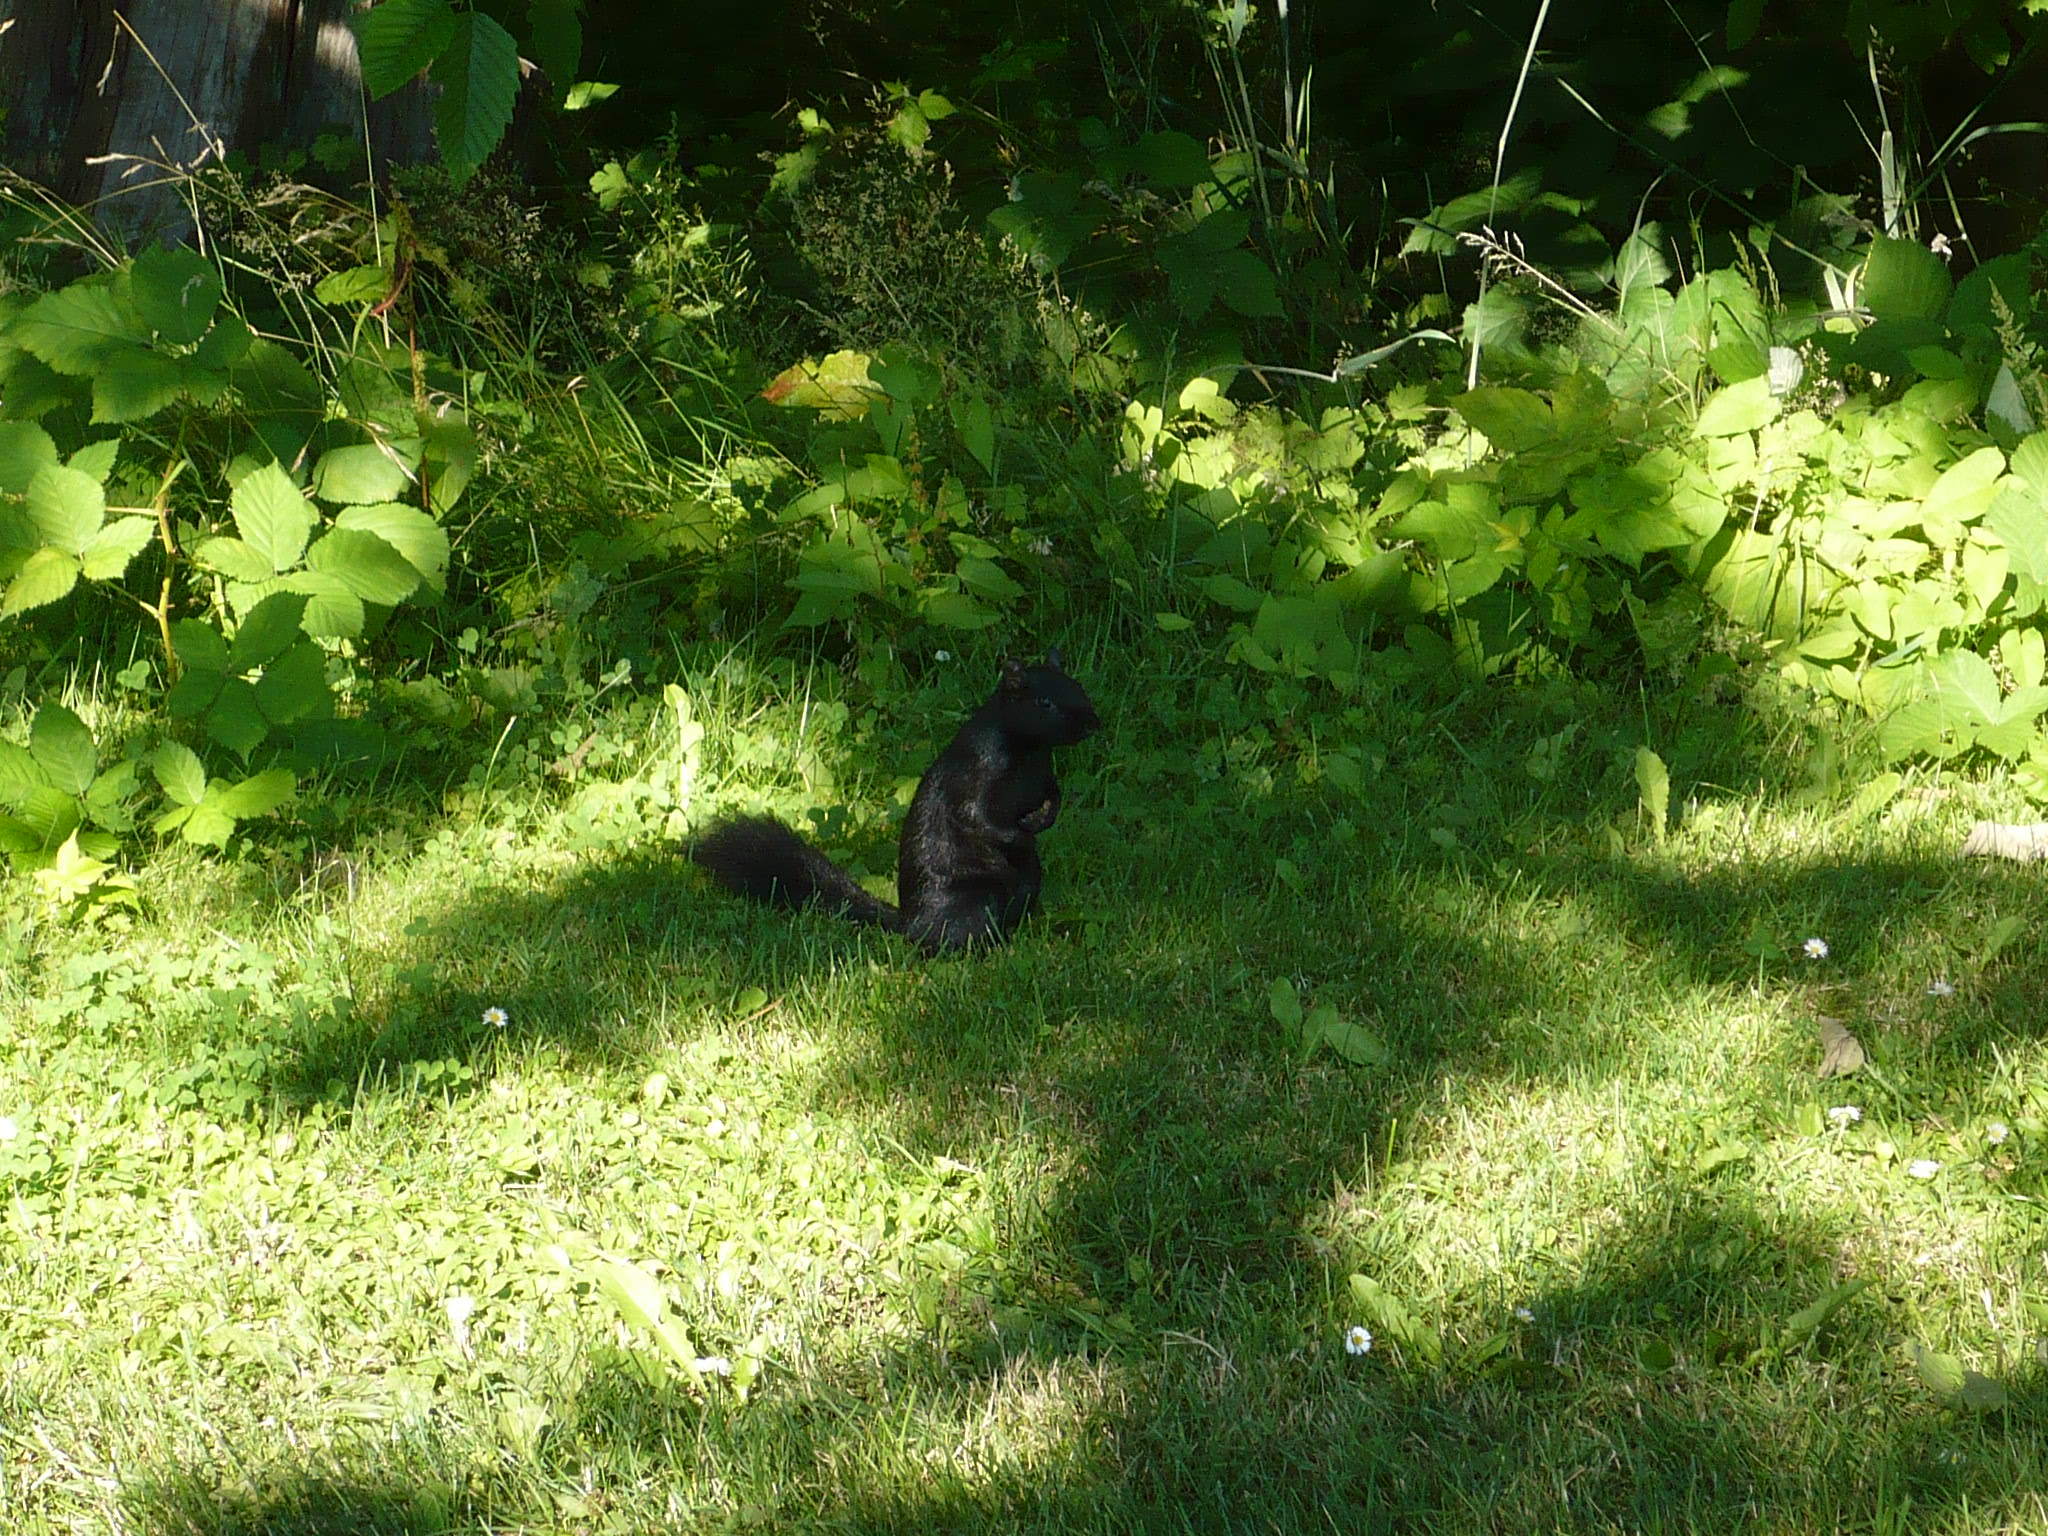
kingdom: Animalia
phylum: Chordata
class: Mammalia
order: Rodentia
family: Sciuridae
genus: Sciurus
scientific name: Sciurus carolinensis
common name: Eastern gray squirrel
